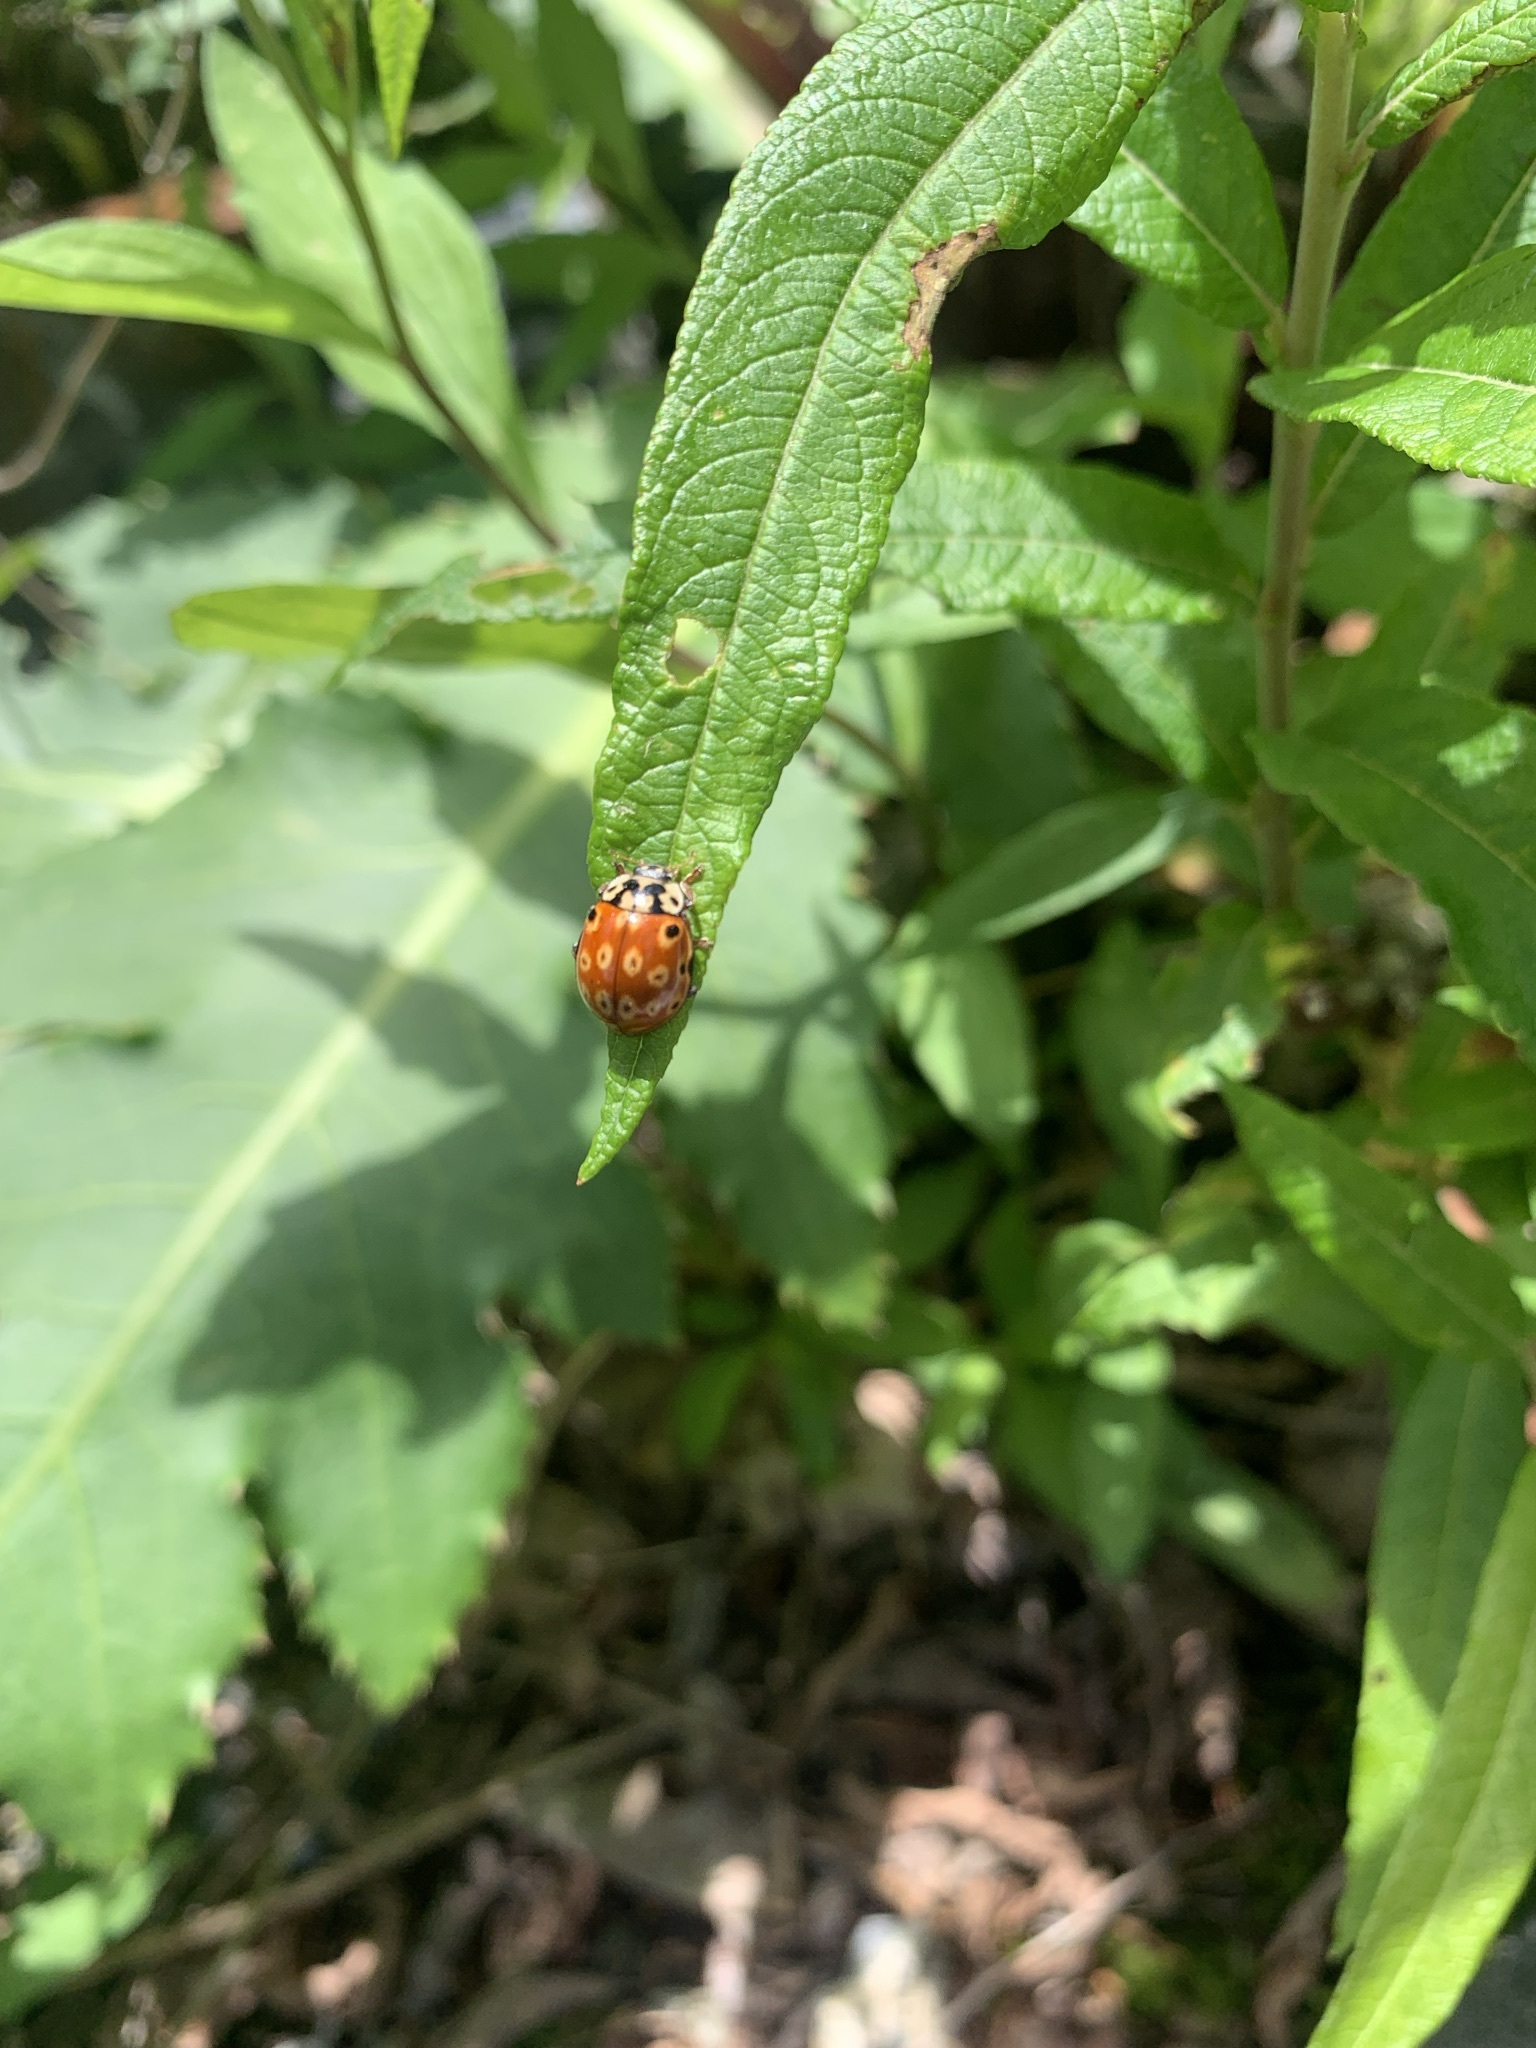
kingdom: Animalia
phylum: Arthropoda
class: Insecta
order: Coleoptera
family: Coccinellidae
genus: Anatis
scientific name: Anatis halonis
